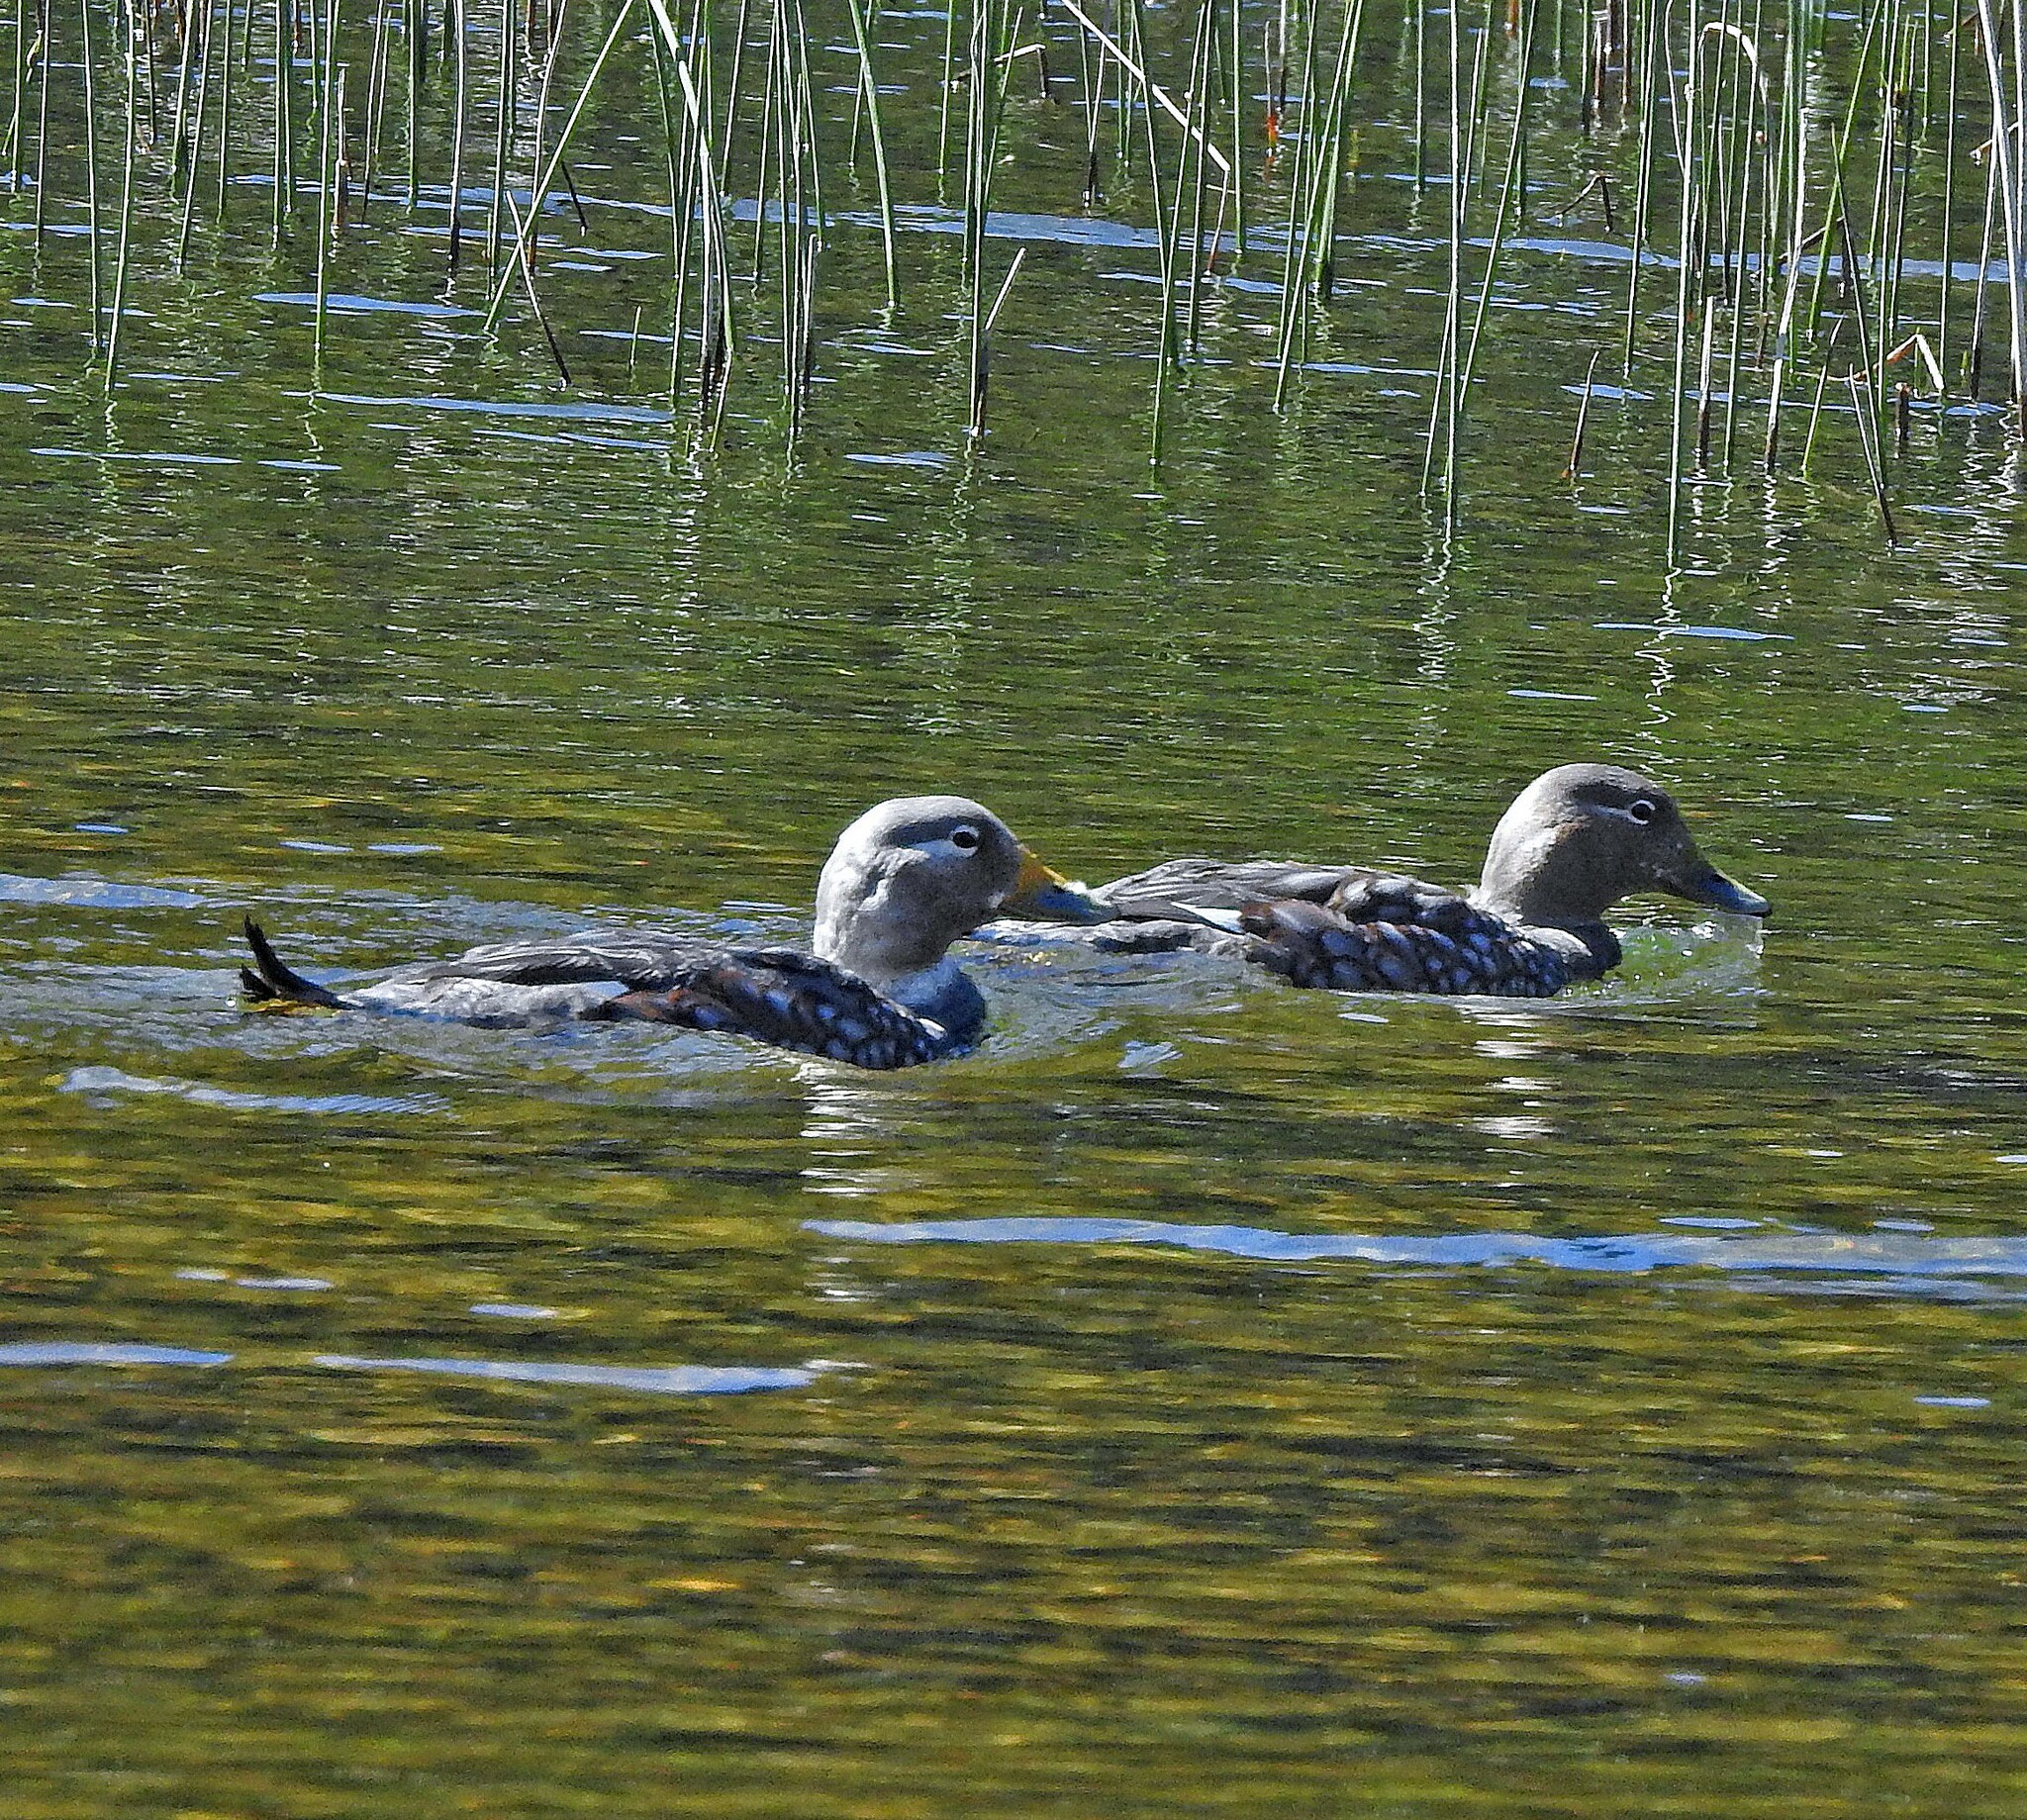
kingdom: Animalia
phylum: Chordata
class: Aves
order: Anseriformes
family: Anatidae
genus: Tachyeres
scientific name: Tachyeres patachonicus
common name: Flying steamer duck
